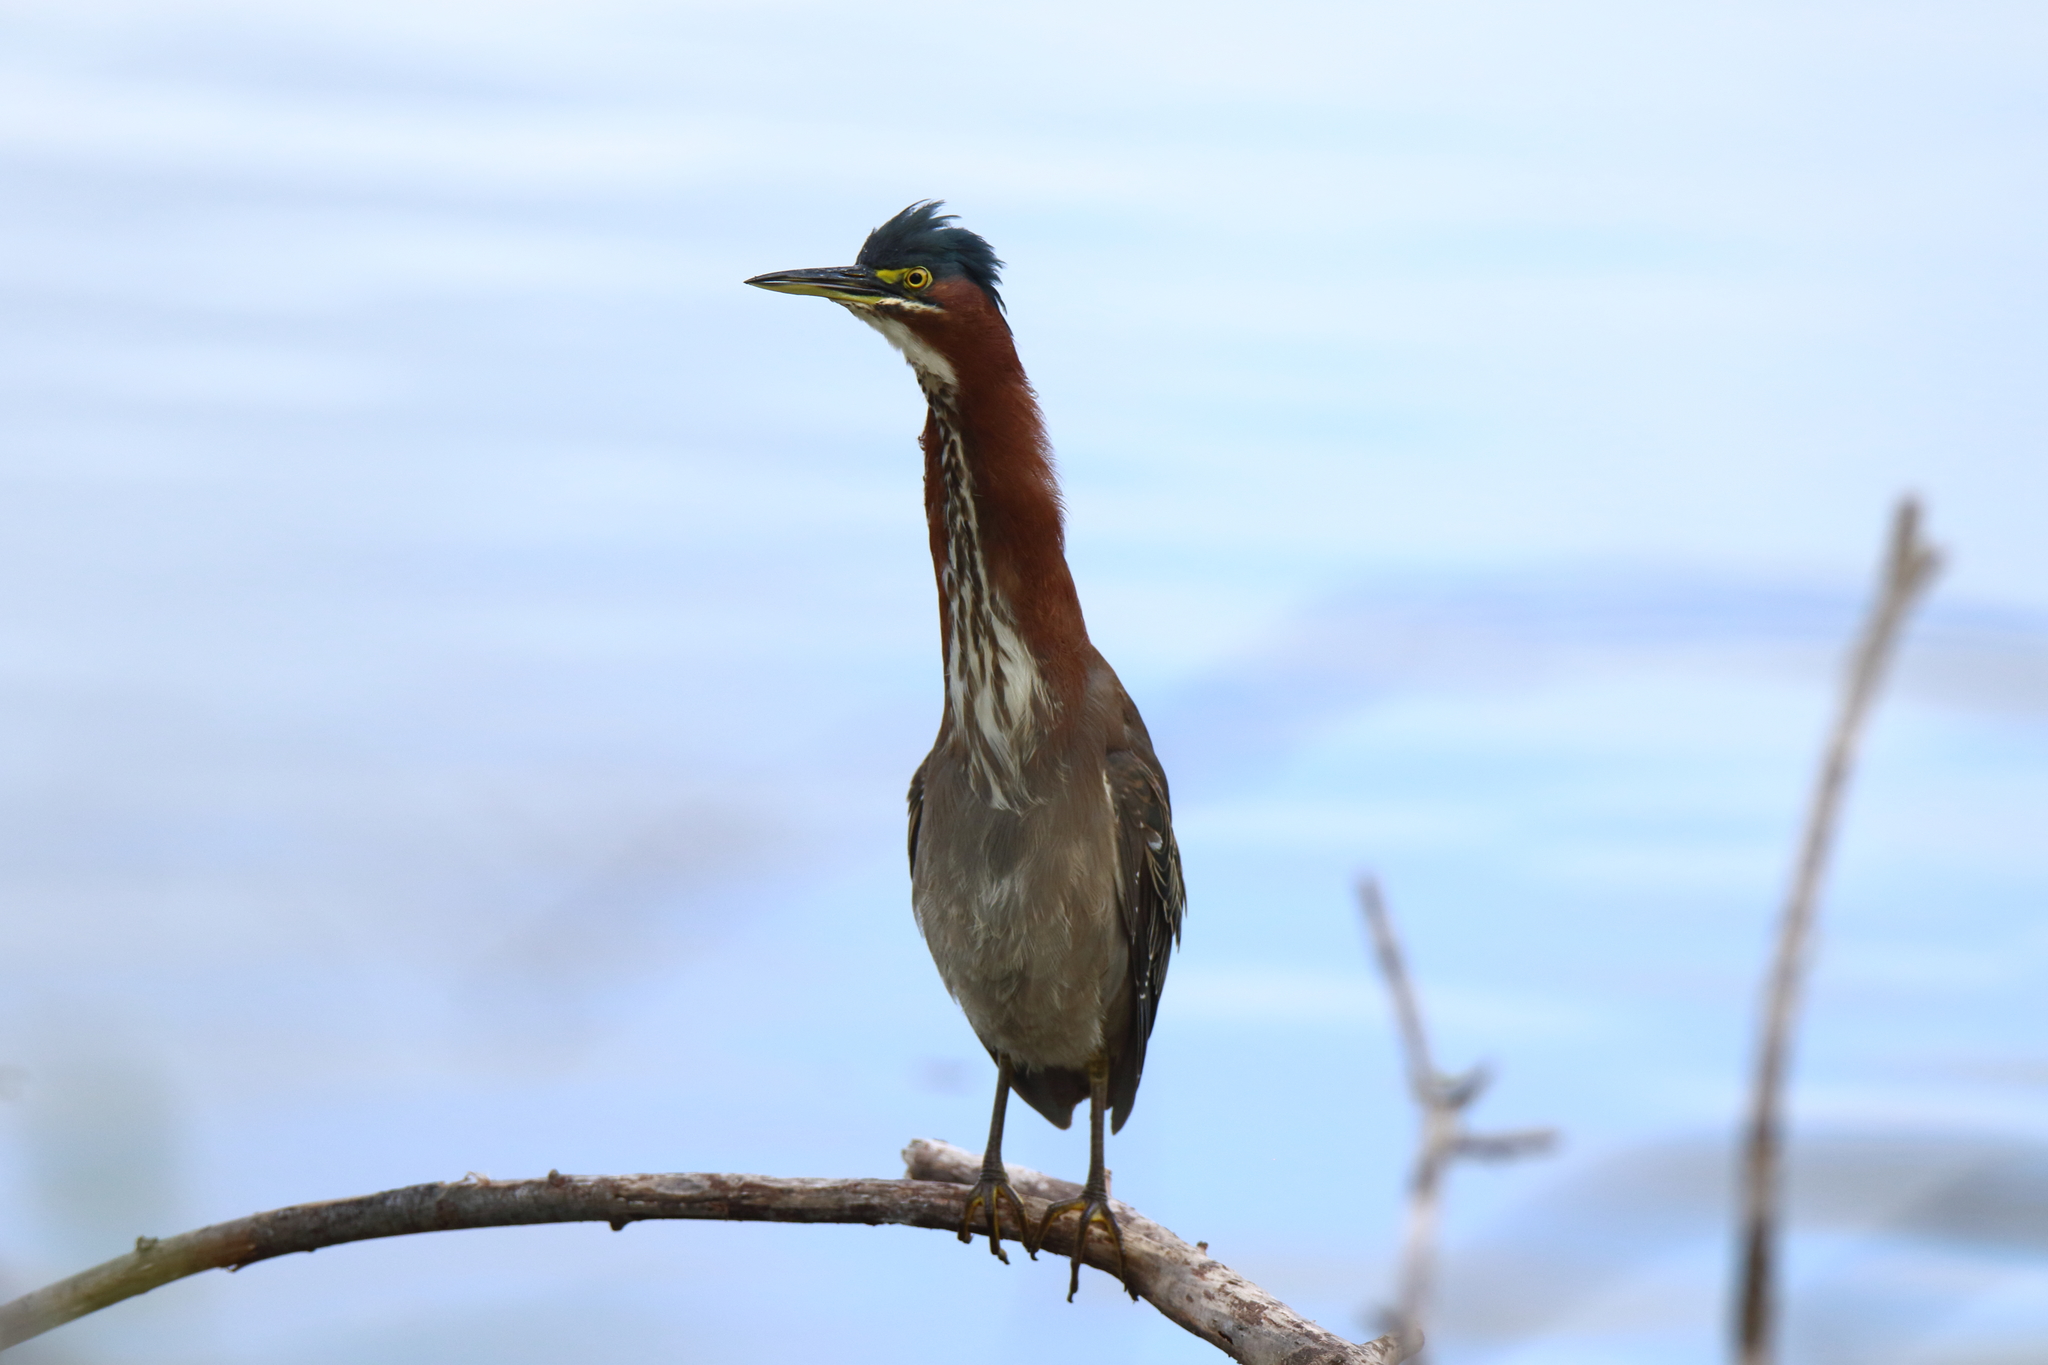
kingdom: Animalia
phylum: Chordata
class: Aves
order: Pelecaniformes
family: Ardeidae
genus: Butorides
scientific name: Butorides virescens
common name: Green heron
